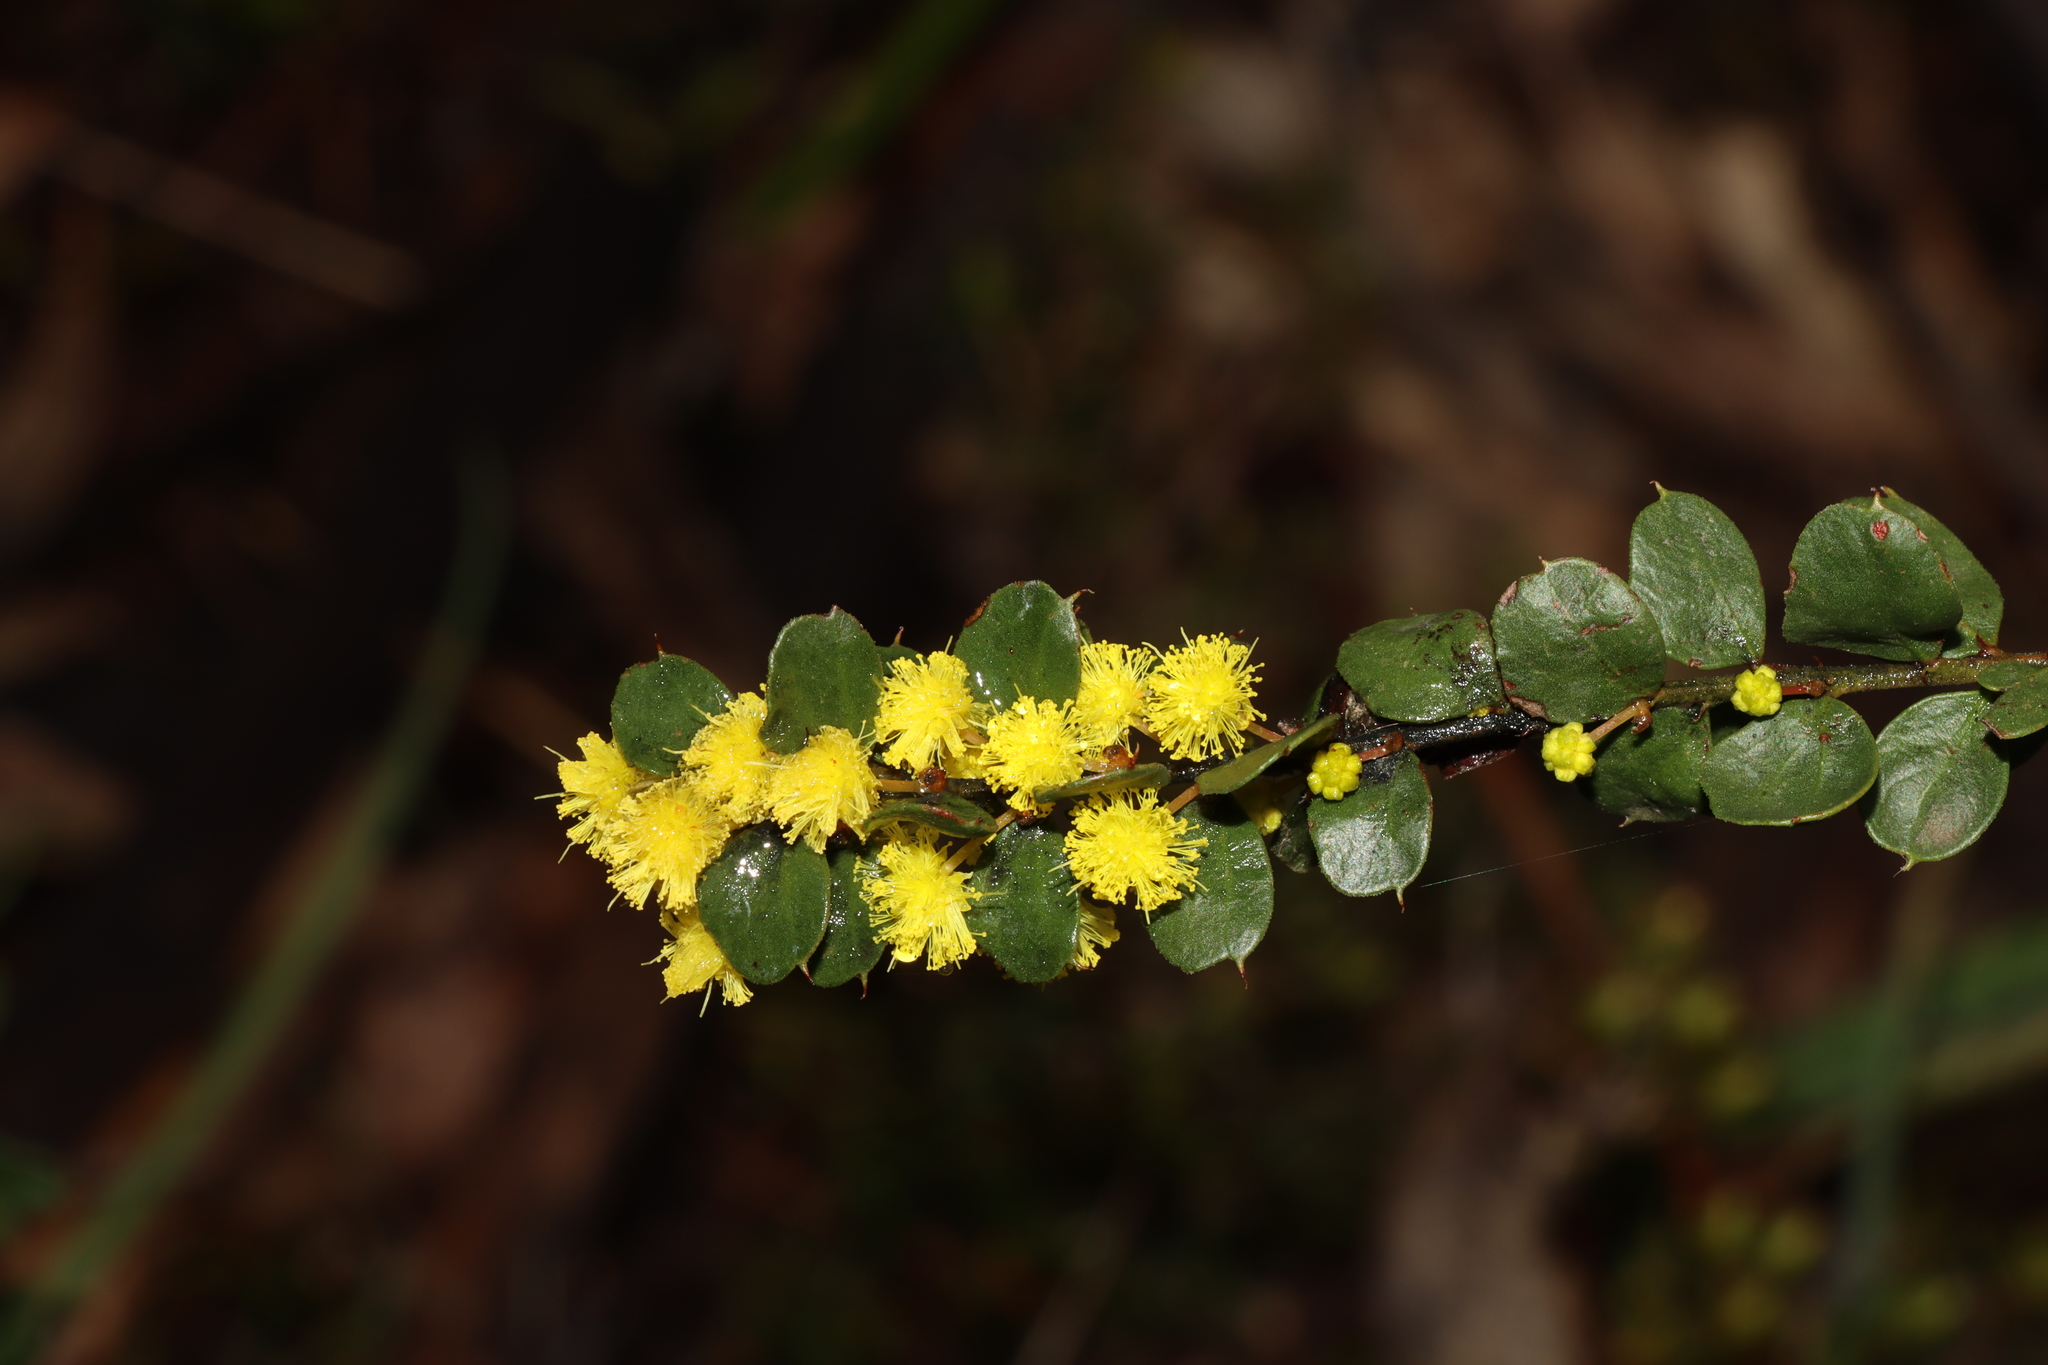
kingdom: Plantae
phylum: Tracheophyta
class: Magnoliopsida
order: Fabales
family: Fabaceae
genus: Acacia
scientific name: Acacia acinacea
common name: Gold-dust acacia
